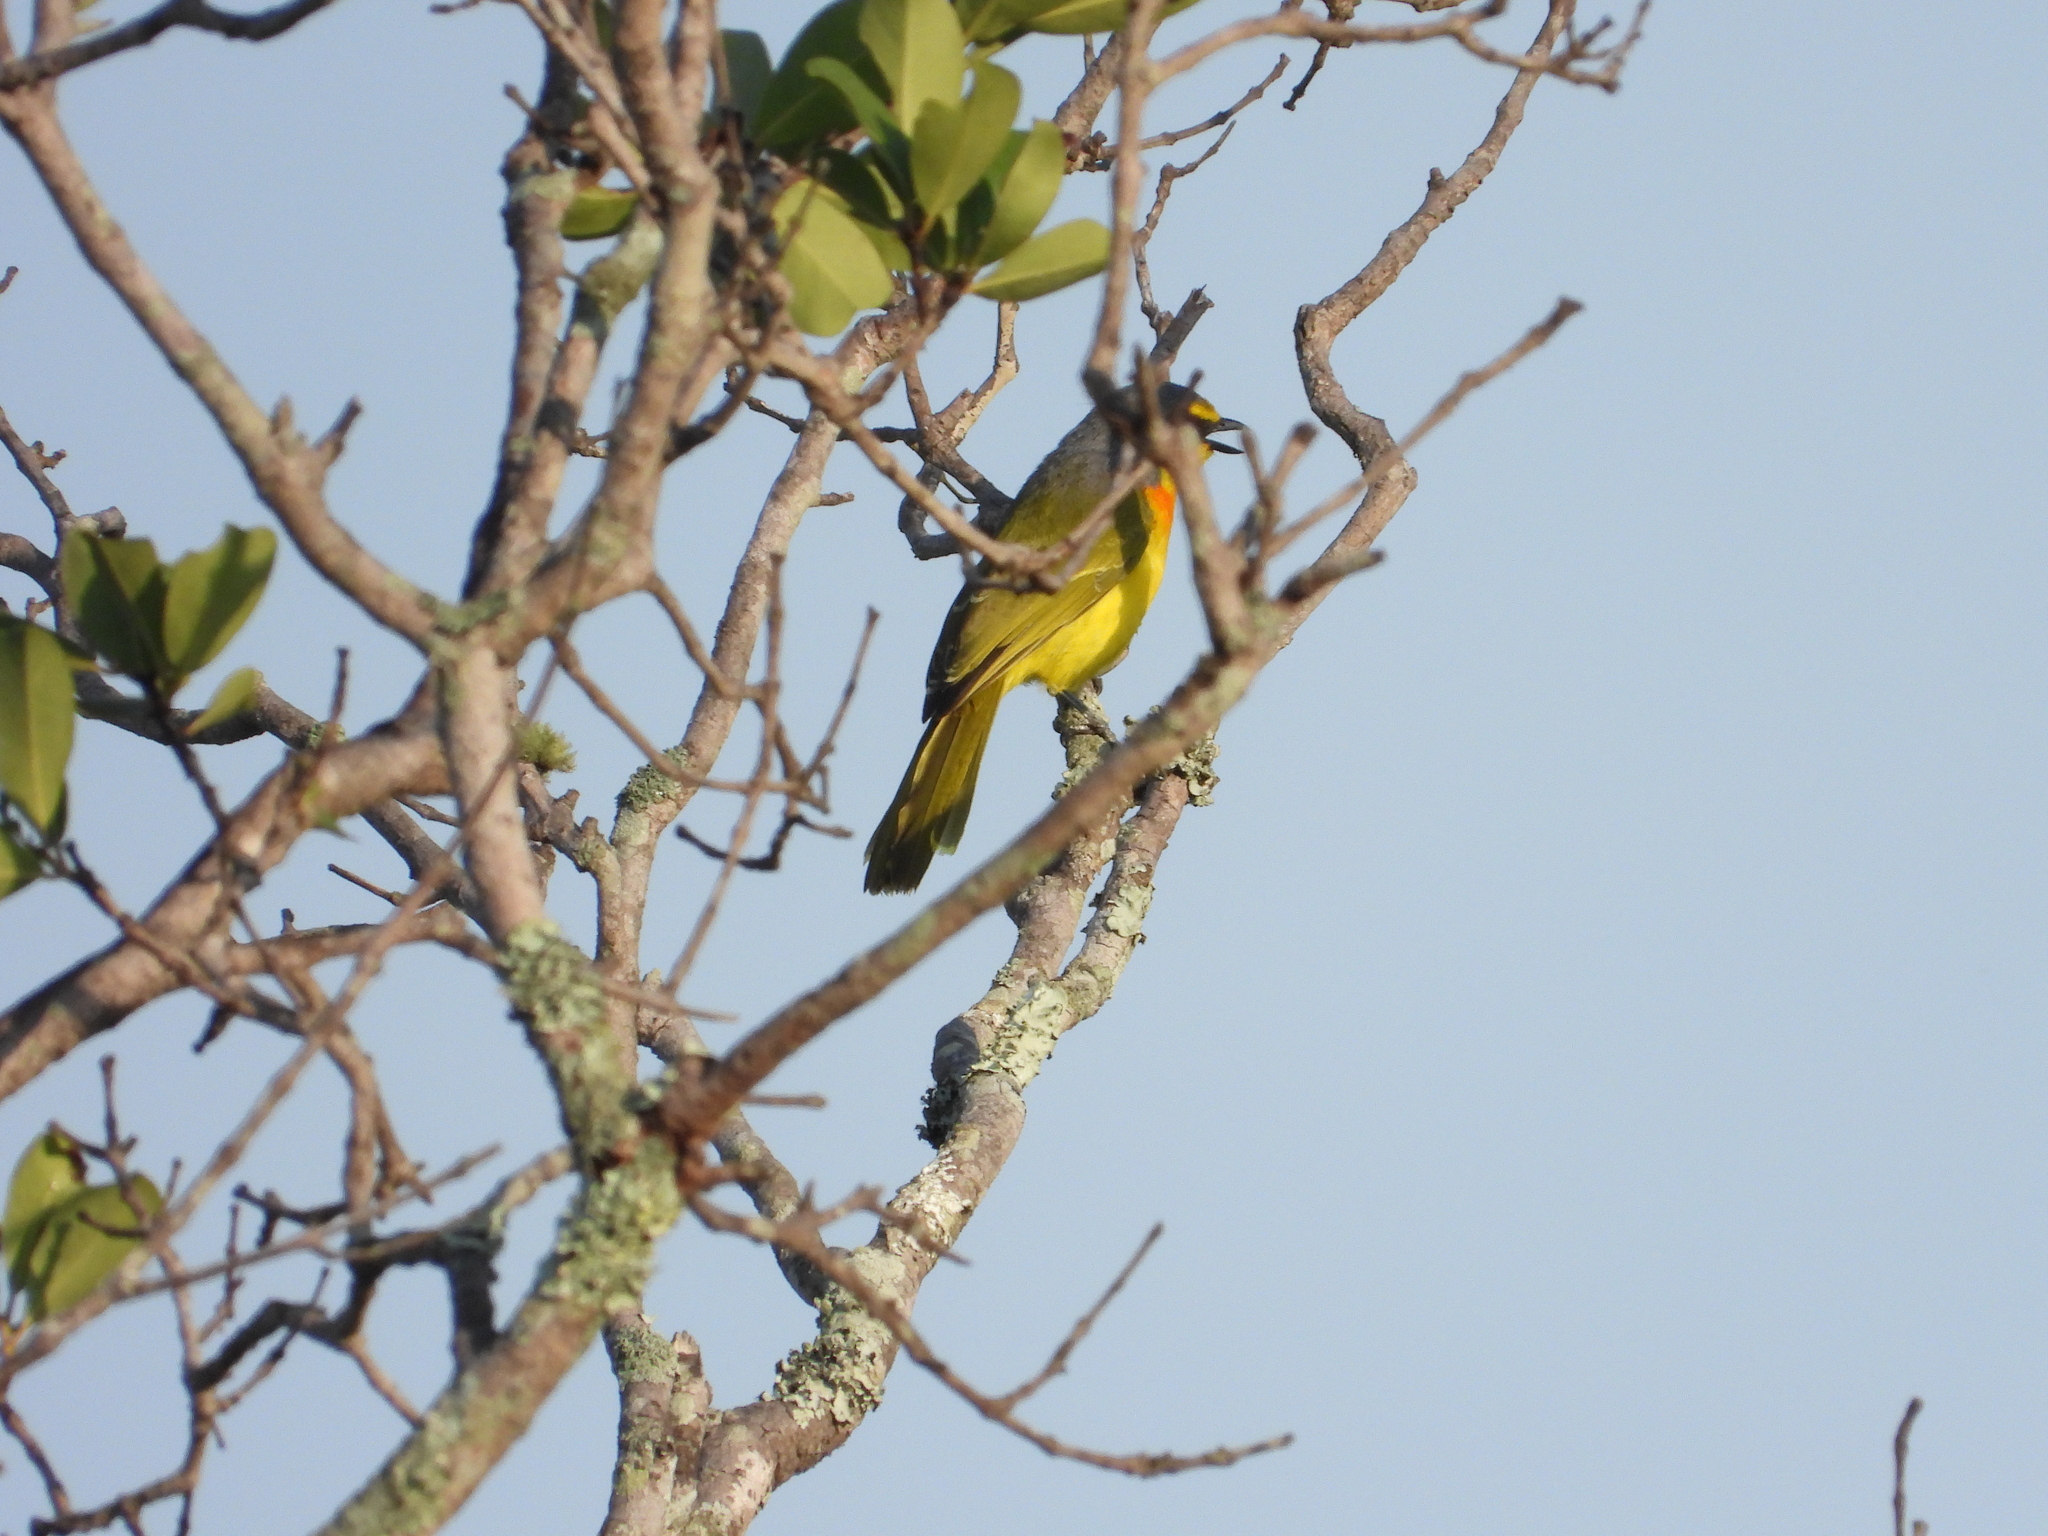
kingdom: Animalia
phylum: Chordata
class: Aves
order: Passeriformes
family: Malaconotidae
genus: Chlorophoneus
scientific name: Chlorophoneus sulfureopectus
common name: Orange-breasted bushshrike
